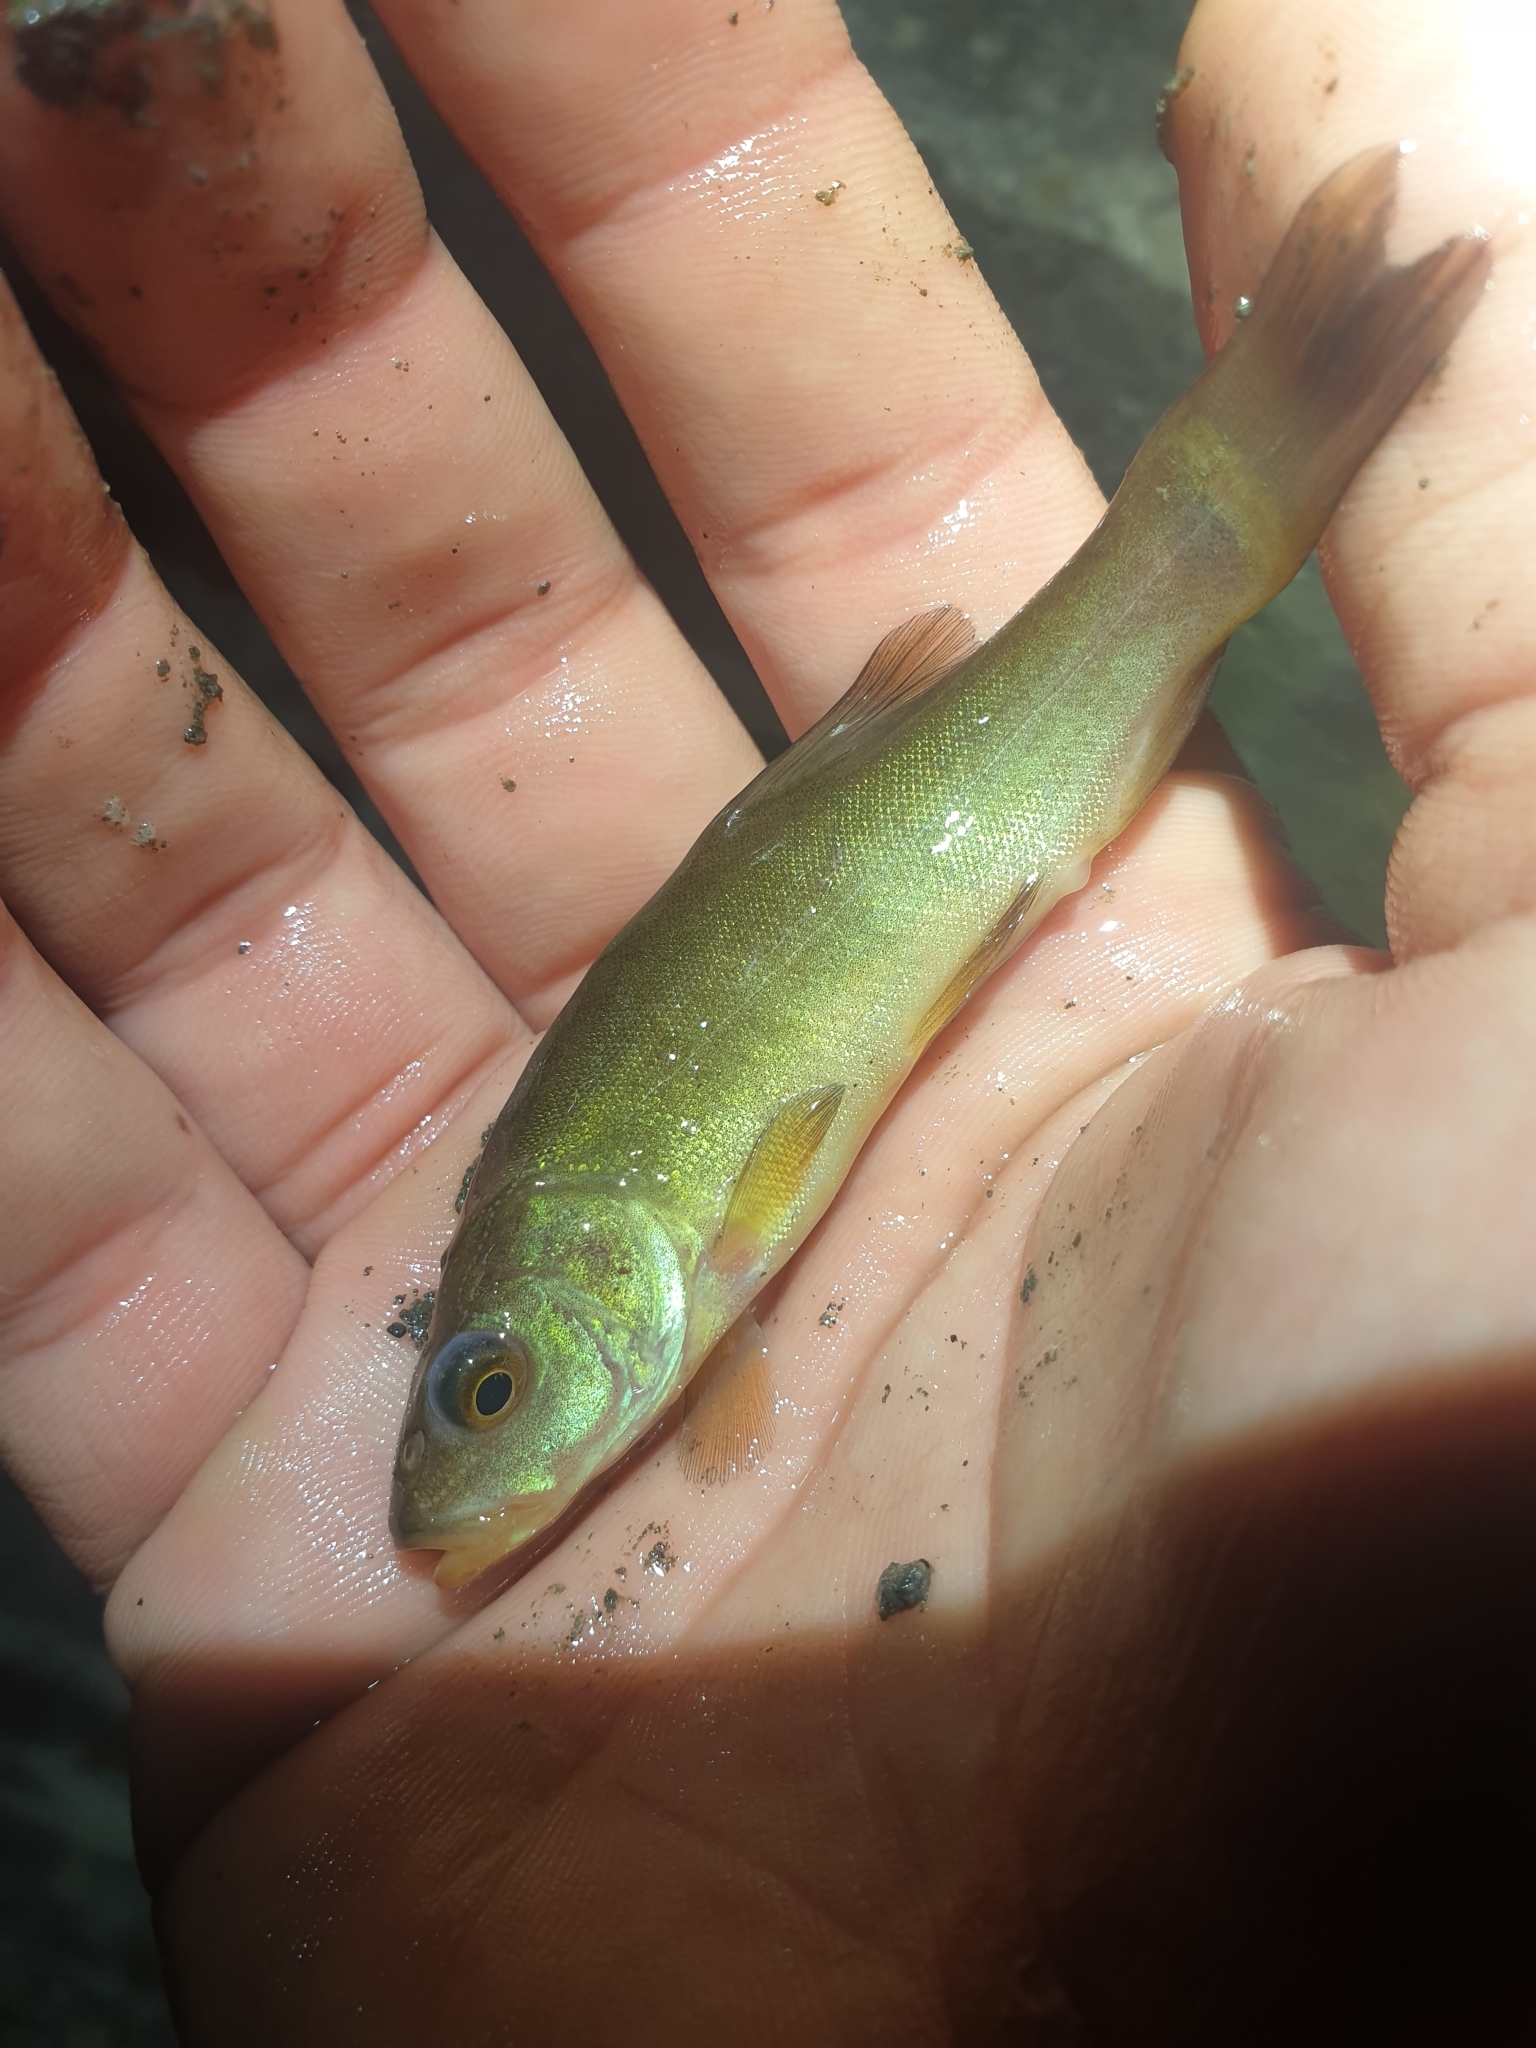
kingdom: Animalia
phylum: Chordata
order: Cypriniformes
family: Cyprinidae
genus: Tinca
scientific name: Tinca tinca
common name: Tench
